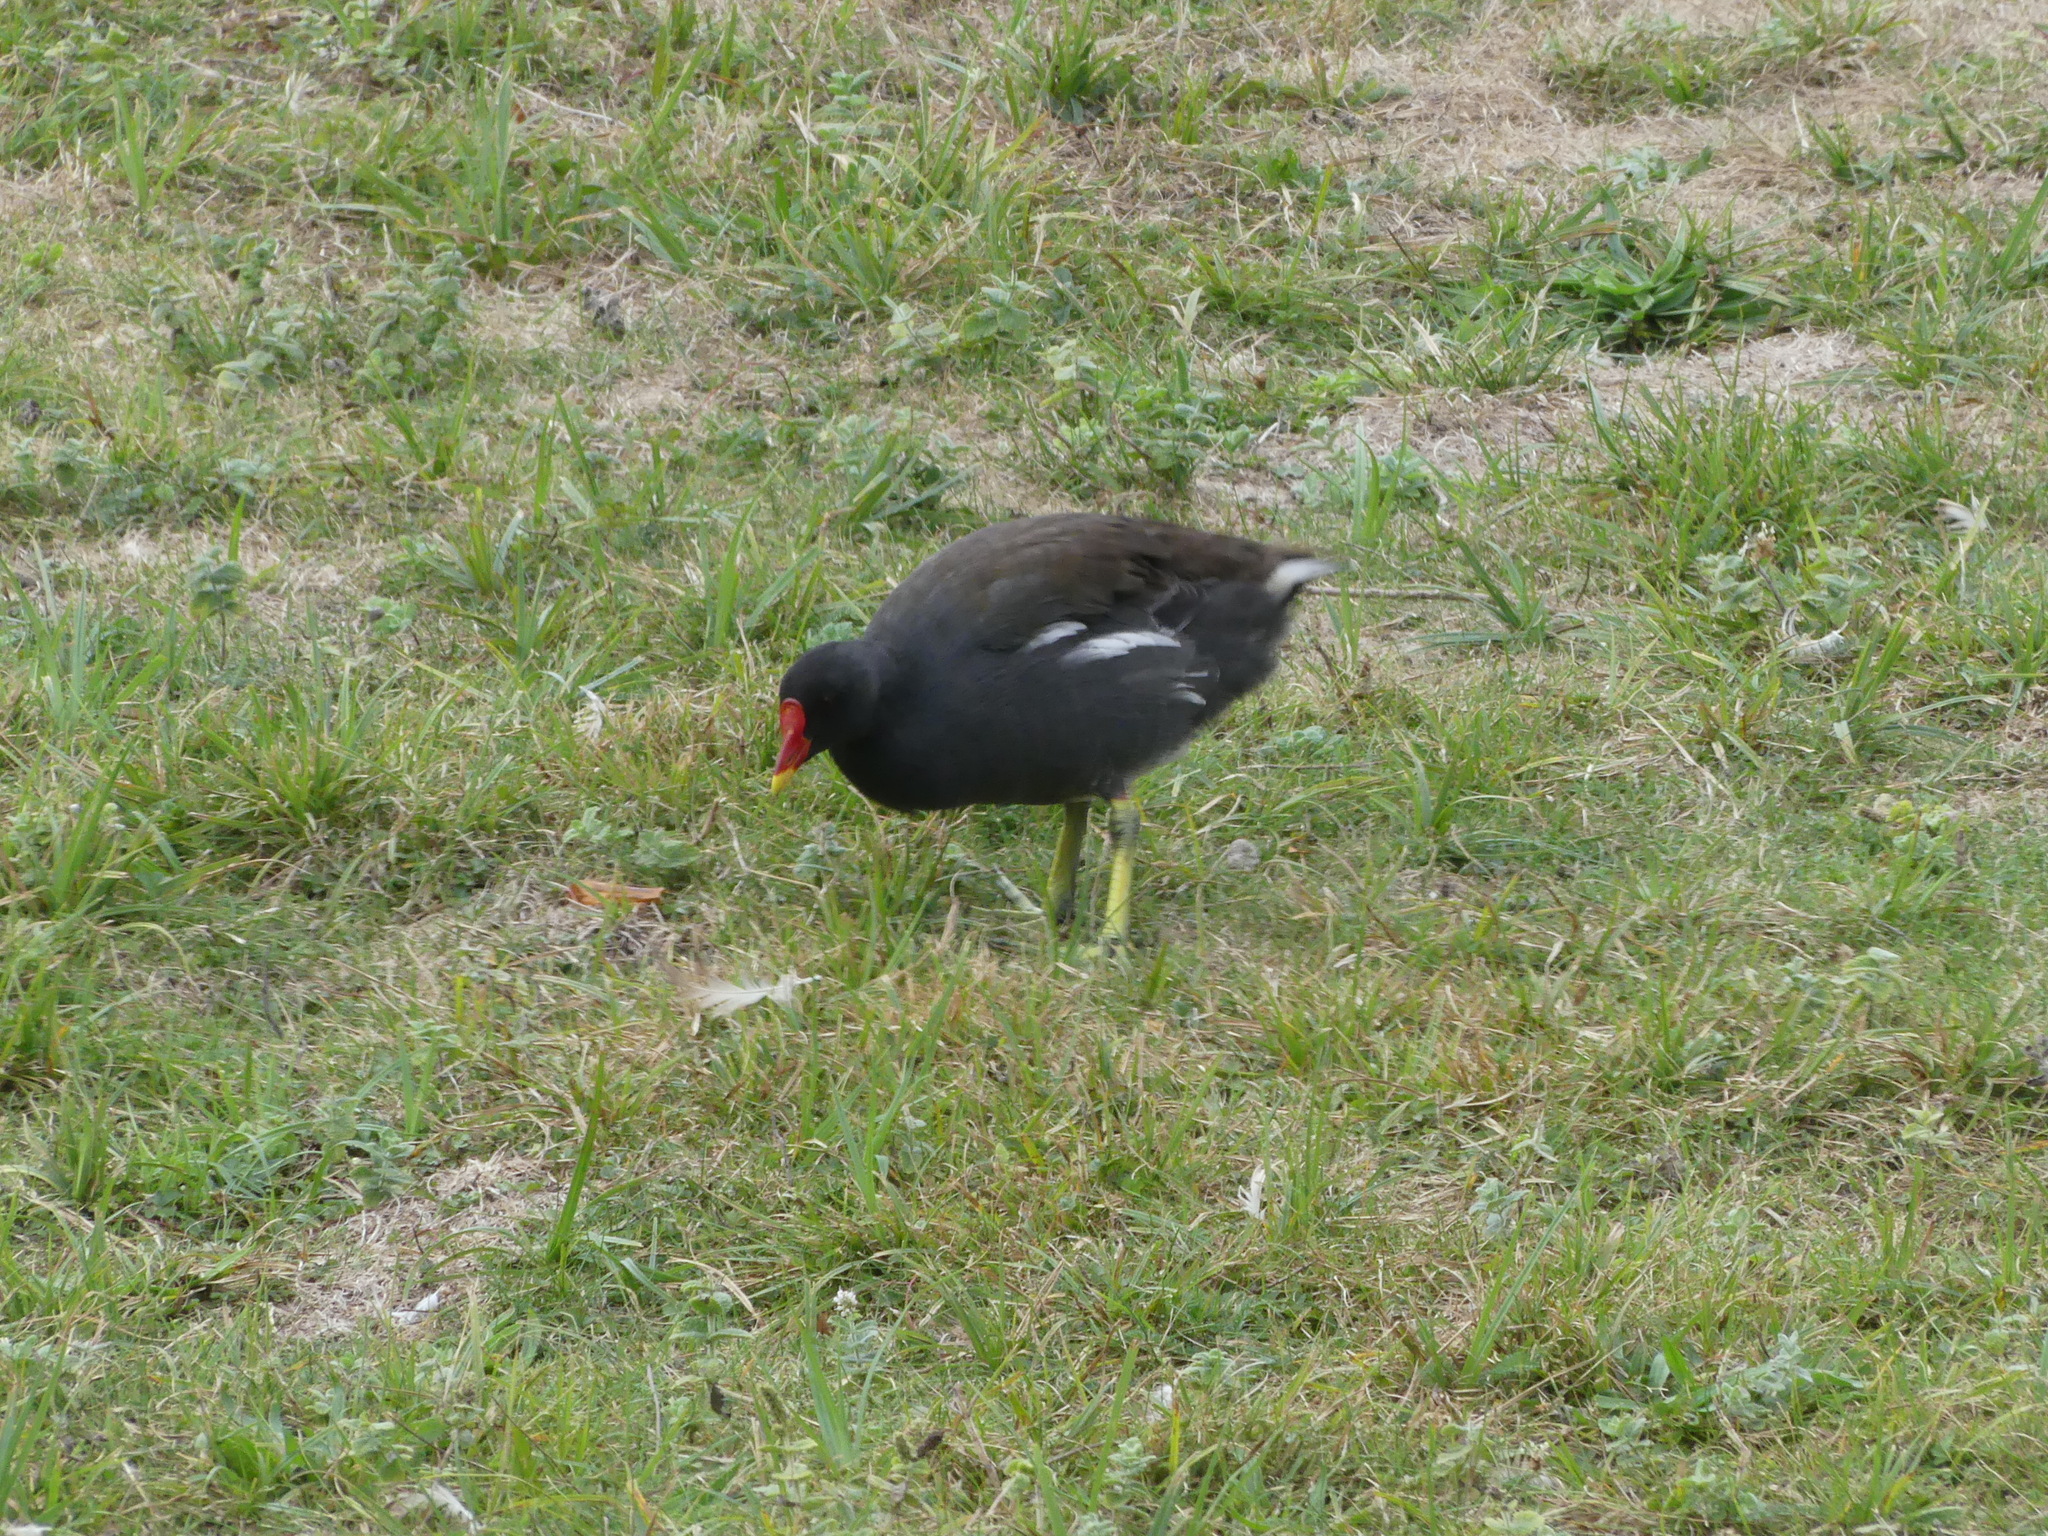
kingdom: Animalia
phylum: Chordata
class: Aves
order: Gruiformes
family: Rallidae
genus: Gallinula
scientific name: Gallinula chloropus
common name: Common moorhen
